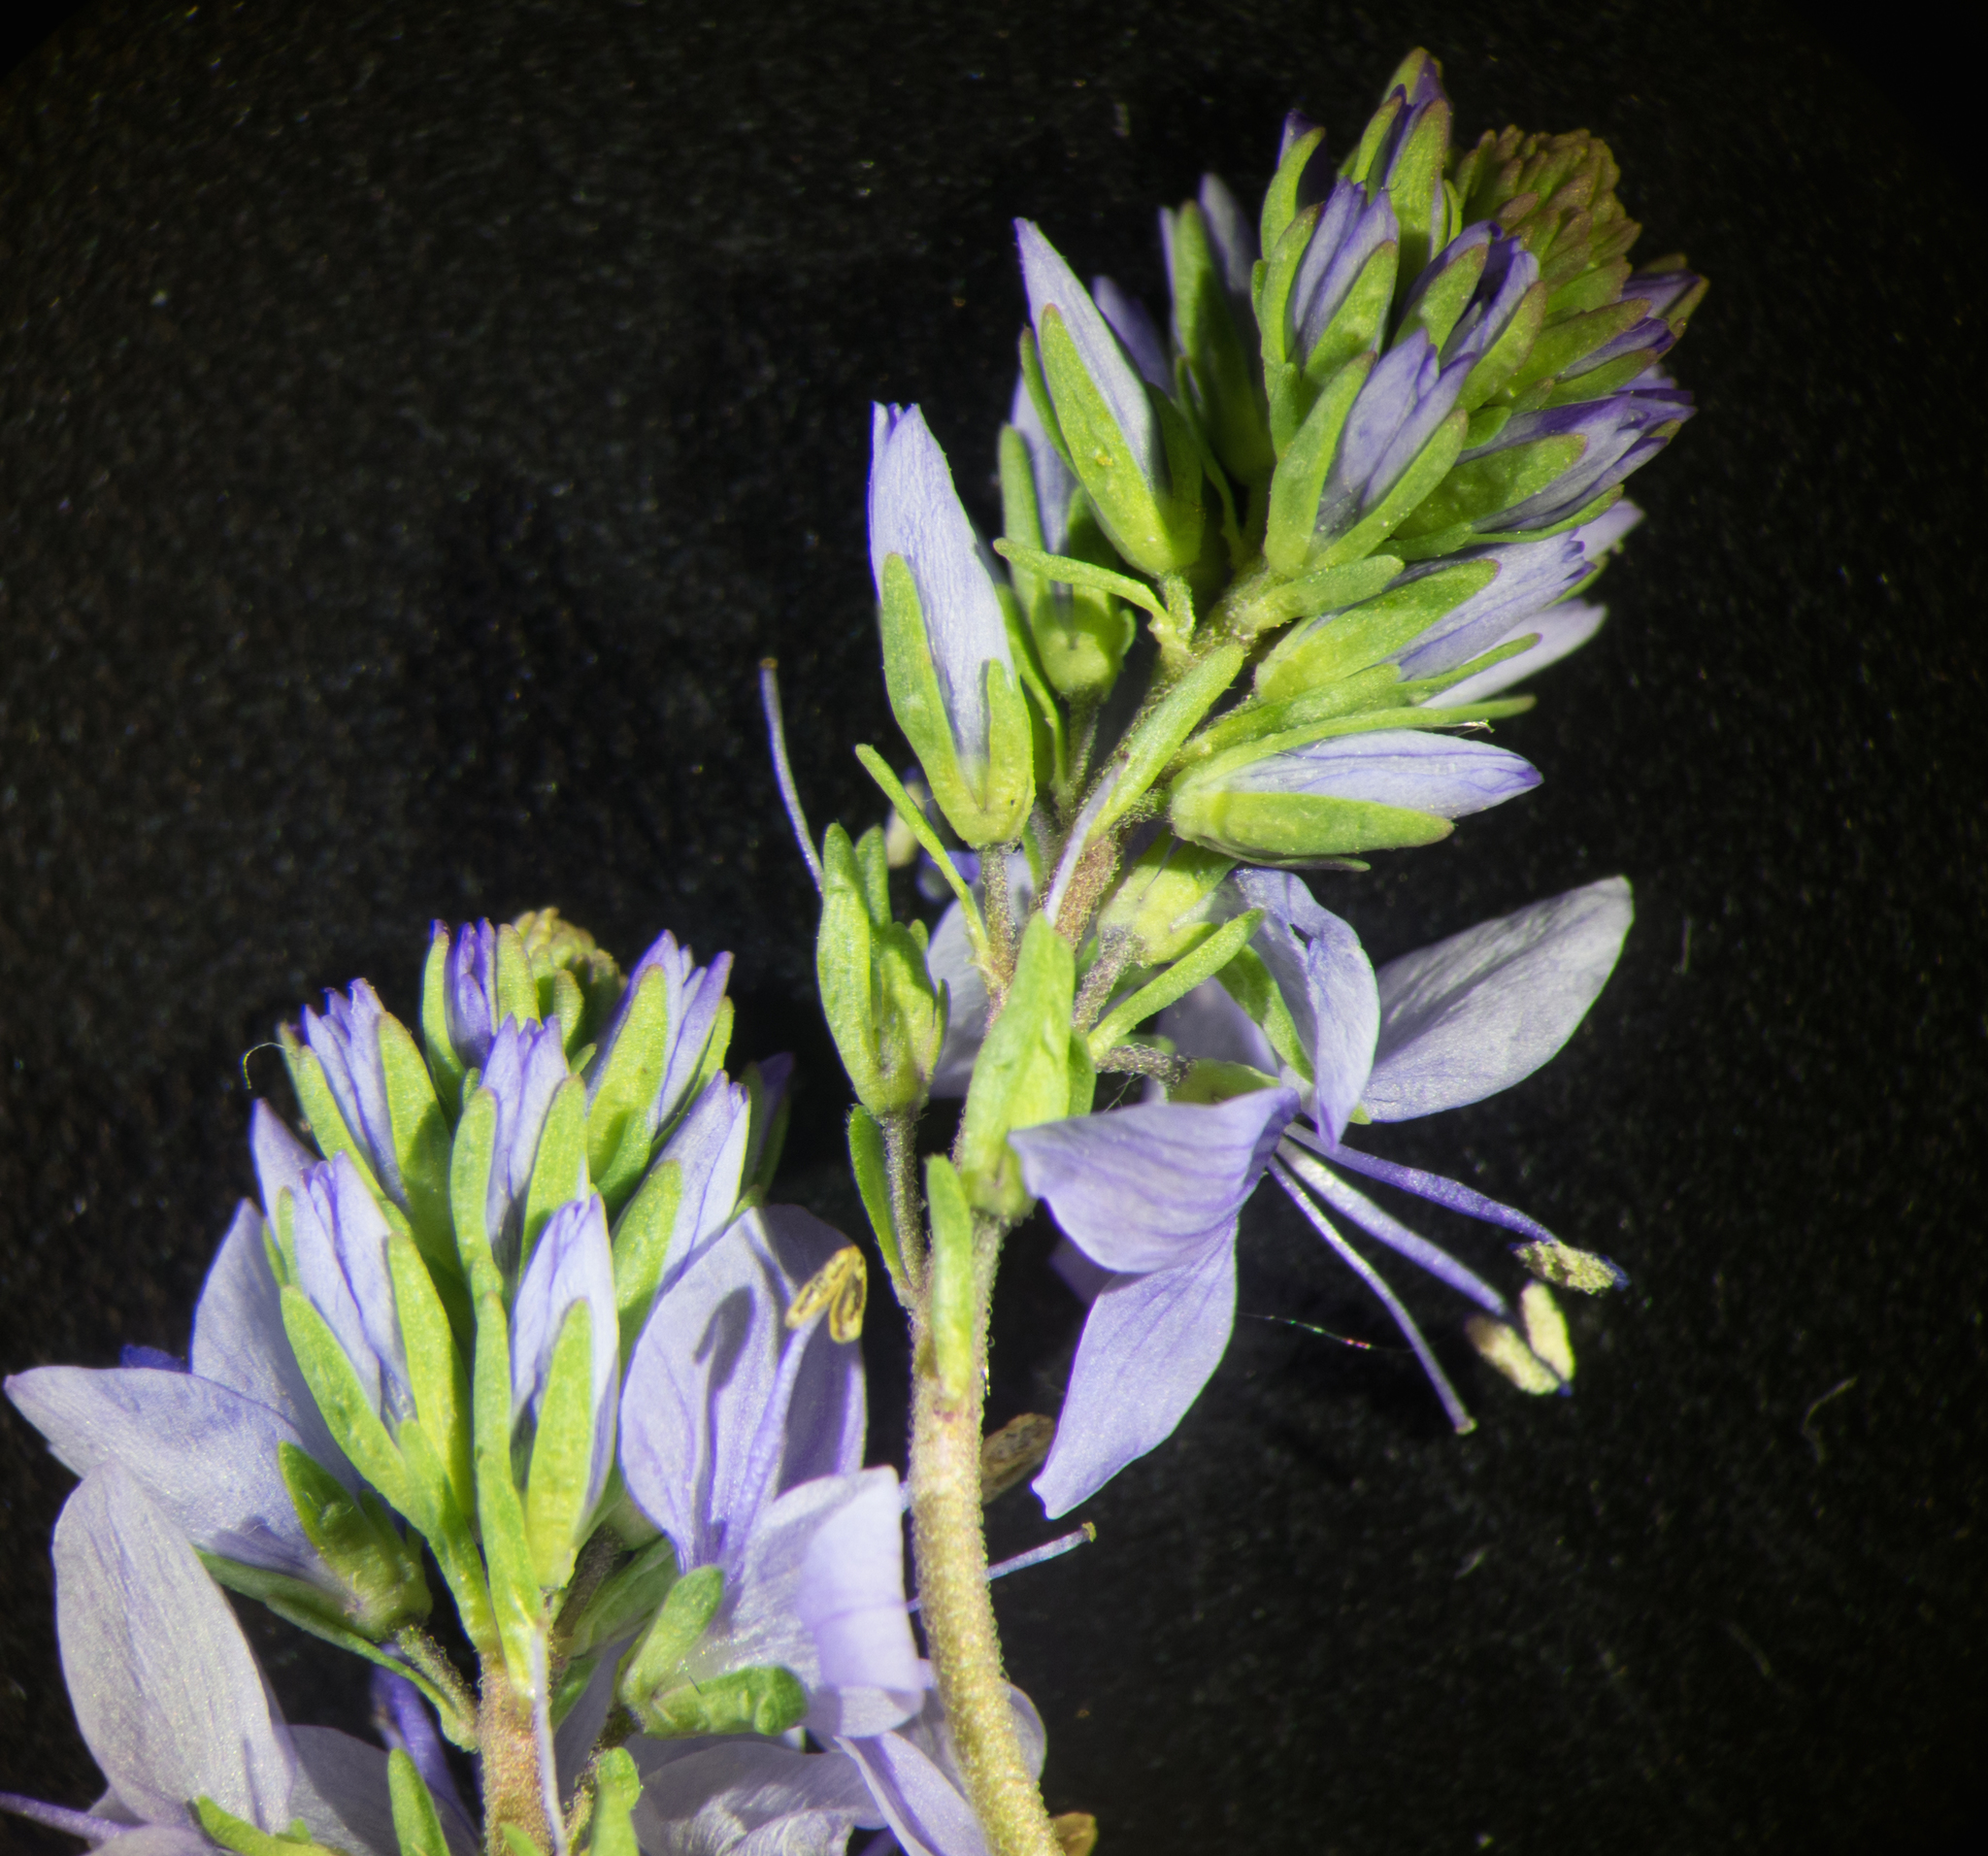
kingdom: Plantae
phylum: Tracheophyta
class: Magnoliopsida
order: Lamiales
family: Plantaginaceae
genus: Veronica
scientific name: Veronica prostrata
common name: Prostrate speedwell
